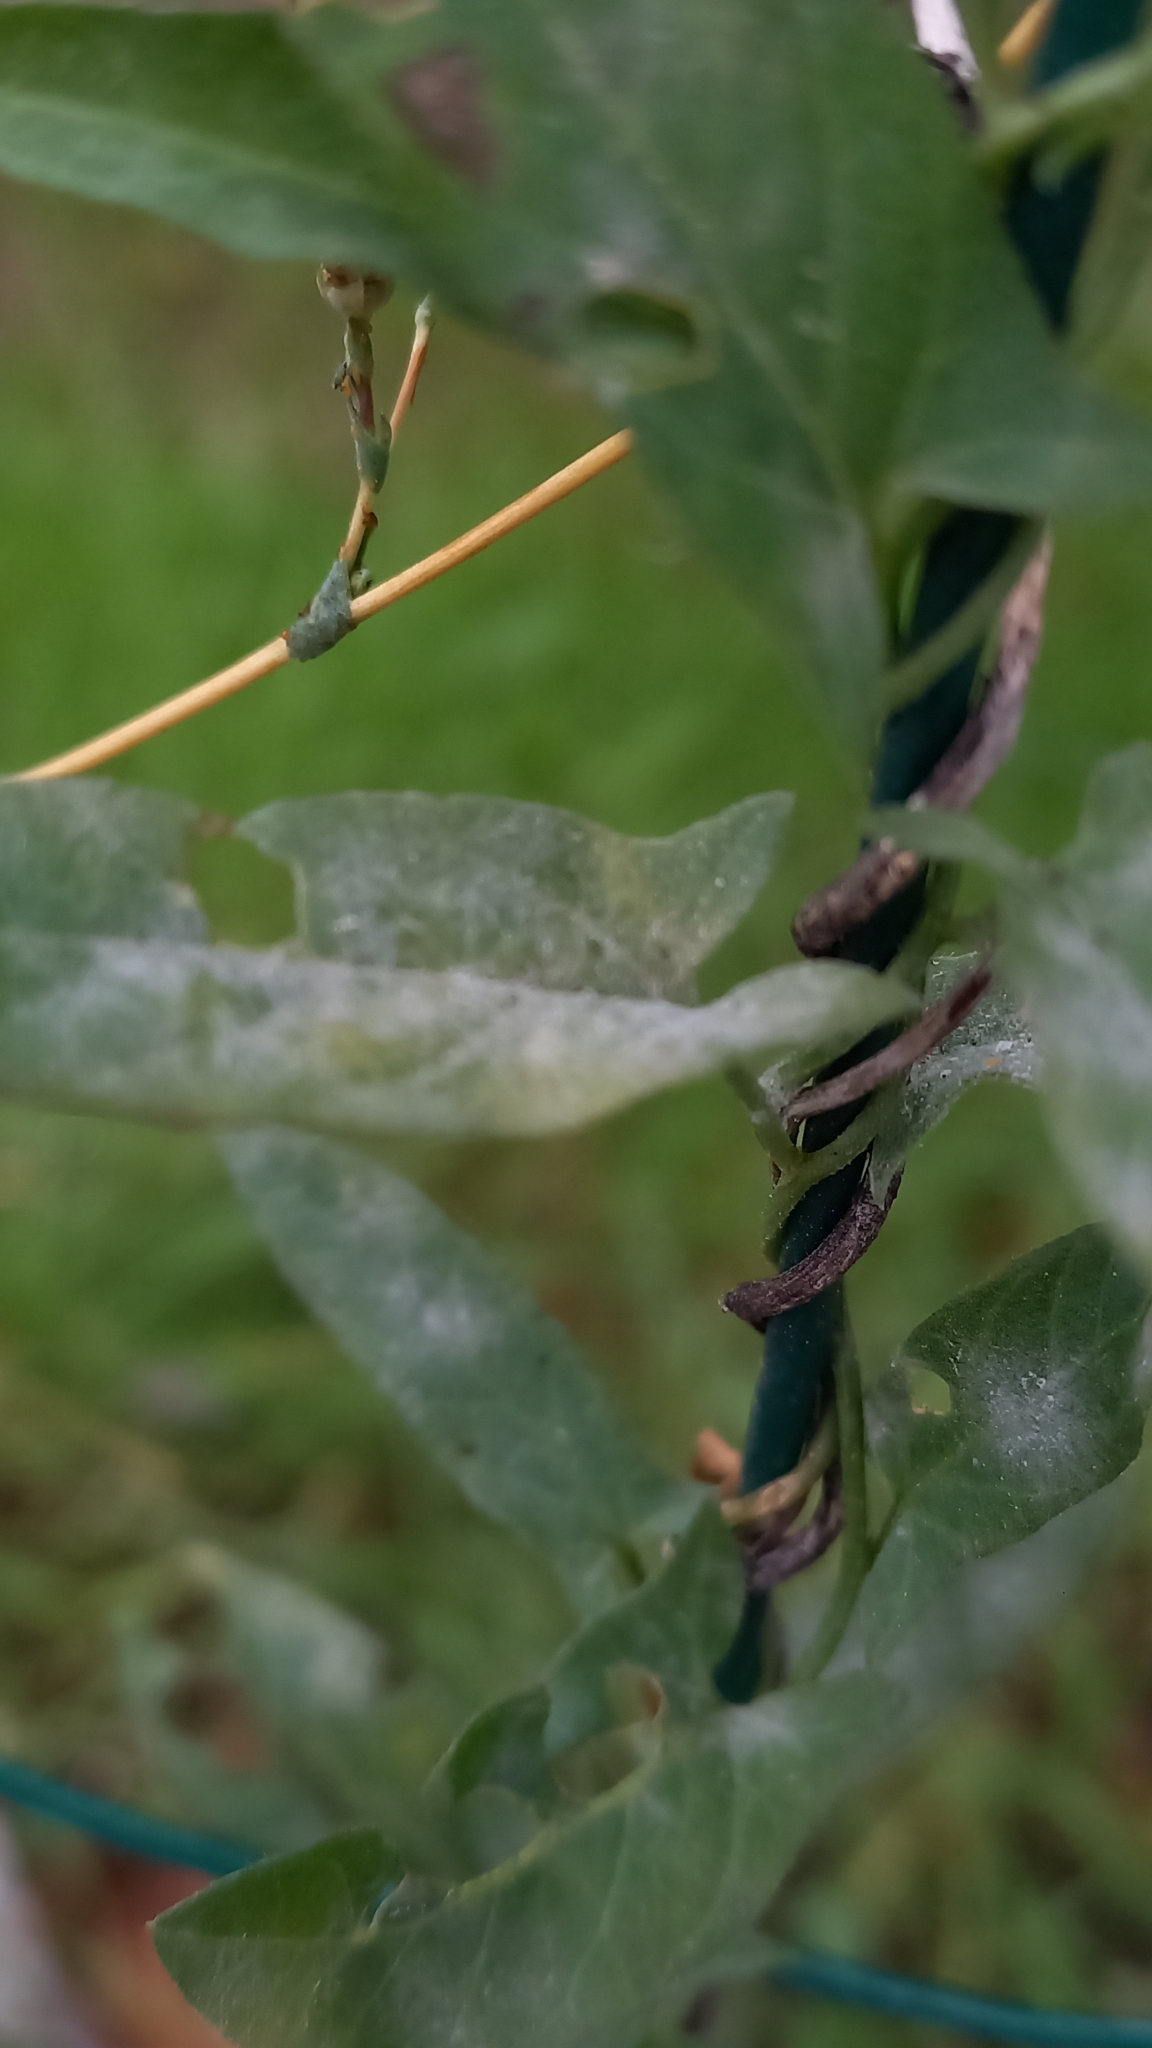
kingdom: Plantae
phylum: Tracheophyta
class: Magnoliopsida
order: Solanales
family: Convolvulaceae
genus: Convolvulus
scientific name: Convolvulus arvensis
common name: Field bindweed
